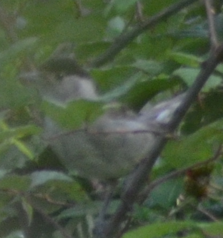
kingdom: Animalia
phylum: Chordata
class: Aves
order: Passeriformes
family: Sylviidae
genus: Sylvia
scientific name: Sylvia atricapilla
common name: Eurasian blackcap
